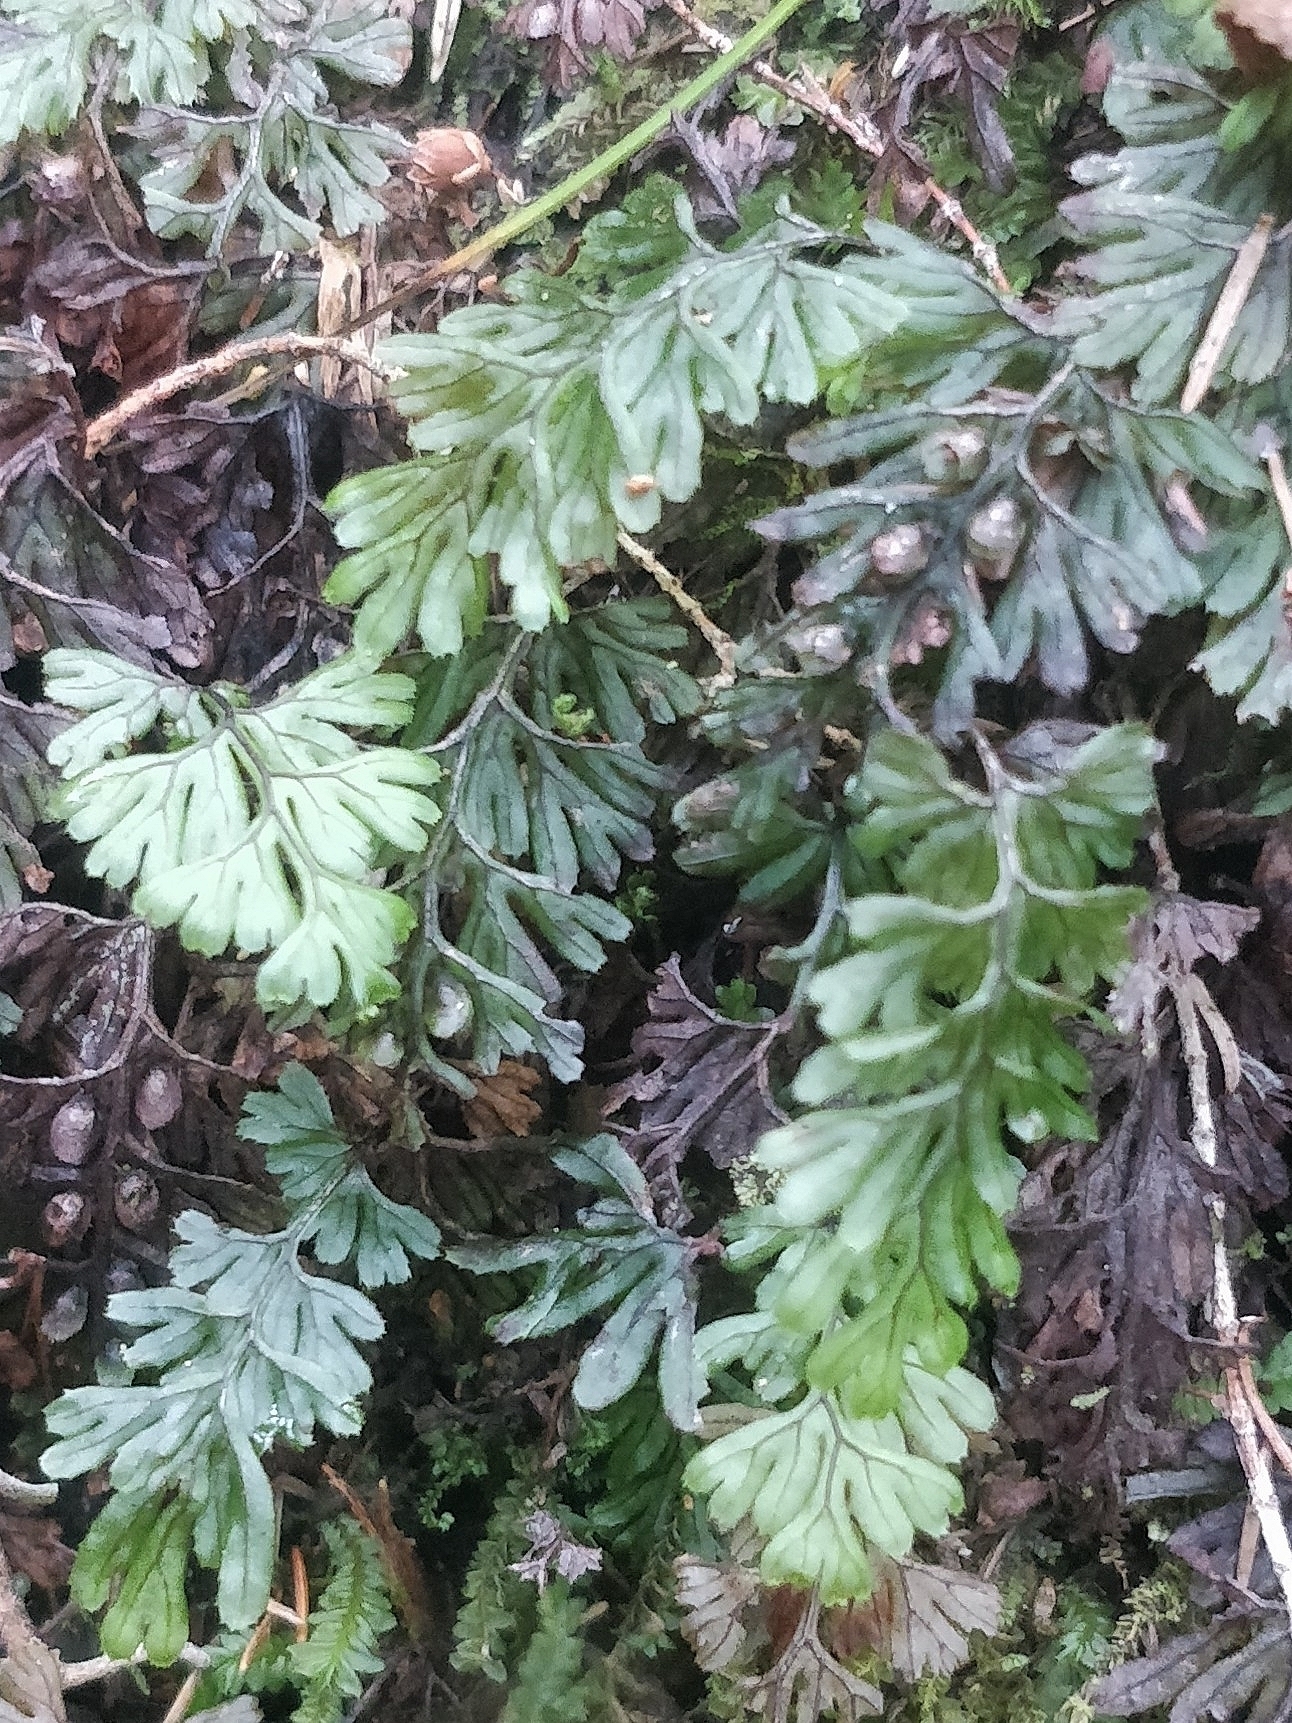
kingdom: Plantae
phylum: Tracheophyta
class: Polypodiopsida
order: Hymenophyllales
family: Hymenophyllaceae
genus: Hymenophyllum
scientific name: Hymenophyllum tunbrigense
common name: Tunbridge filmy fern
